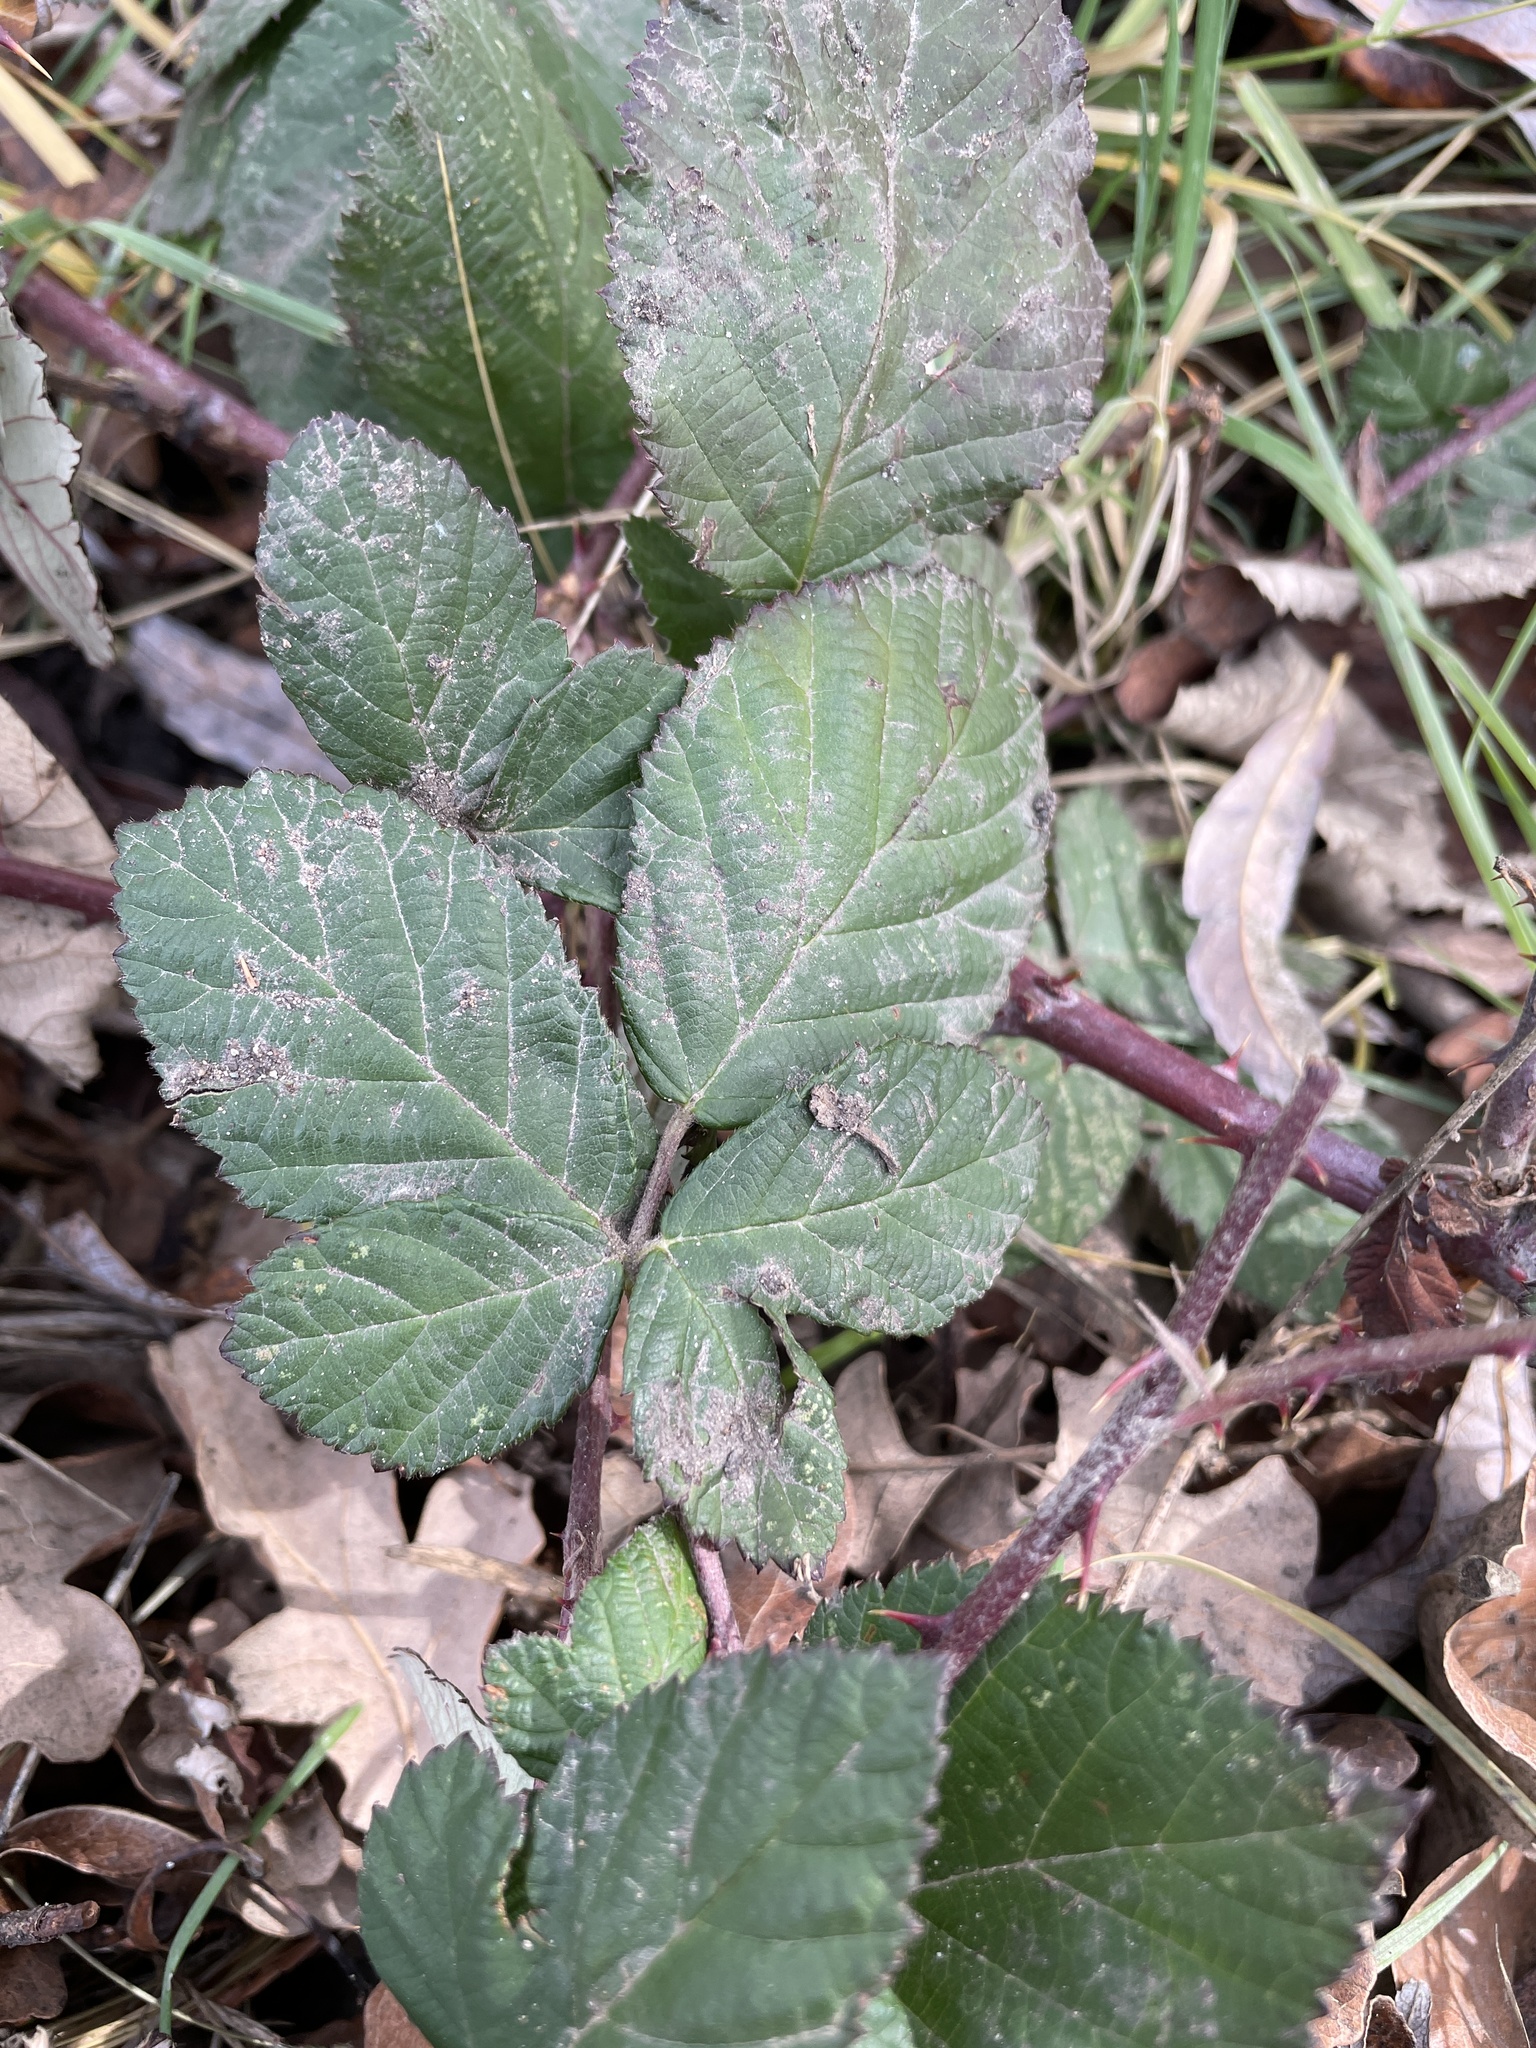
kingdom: Plantae
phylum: Tracheophyta
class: Magnoliopsida
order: Rosales
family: Rosaceae
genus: Rubus
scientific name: Rubus armeniacus
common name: Himalayan blackberry
